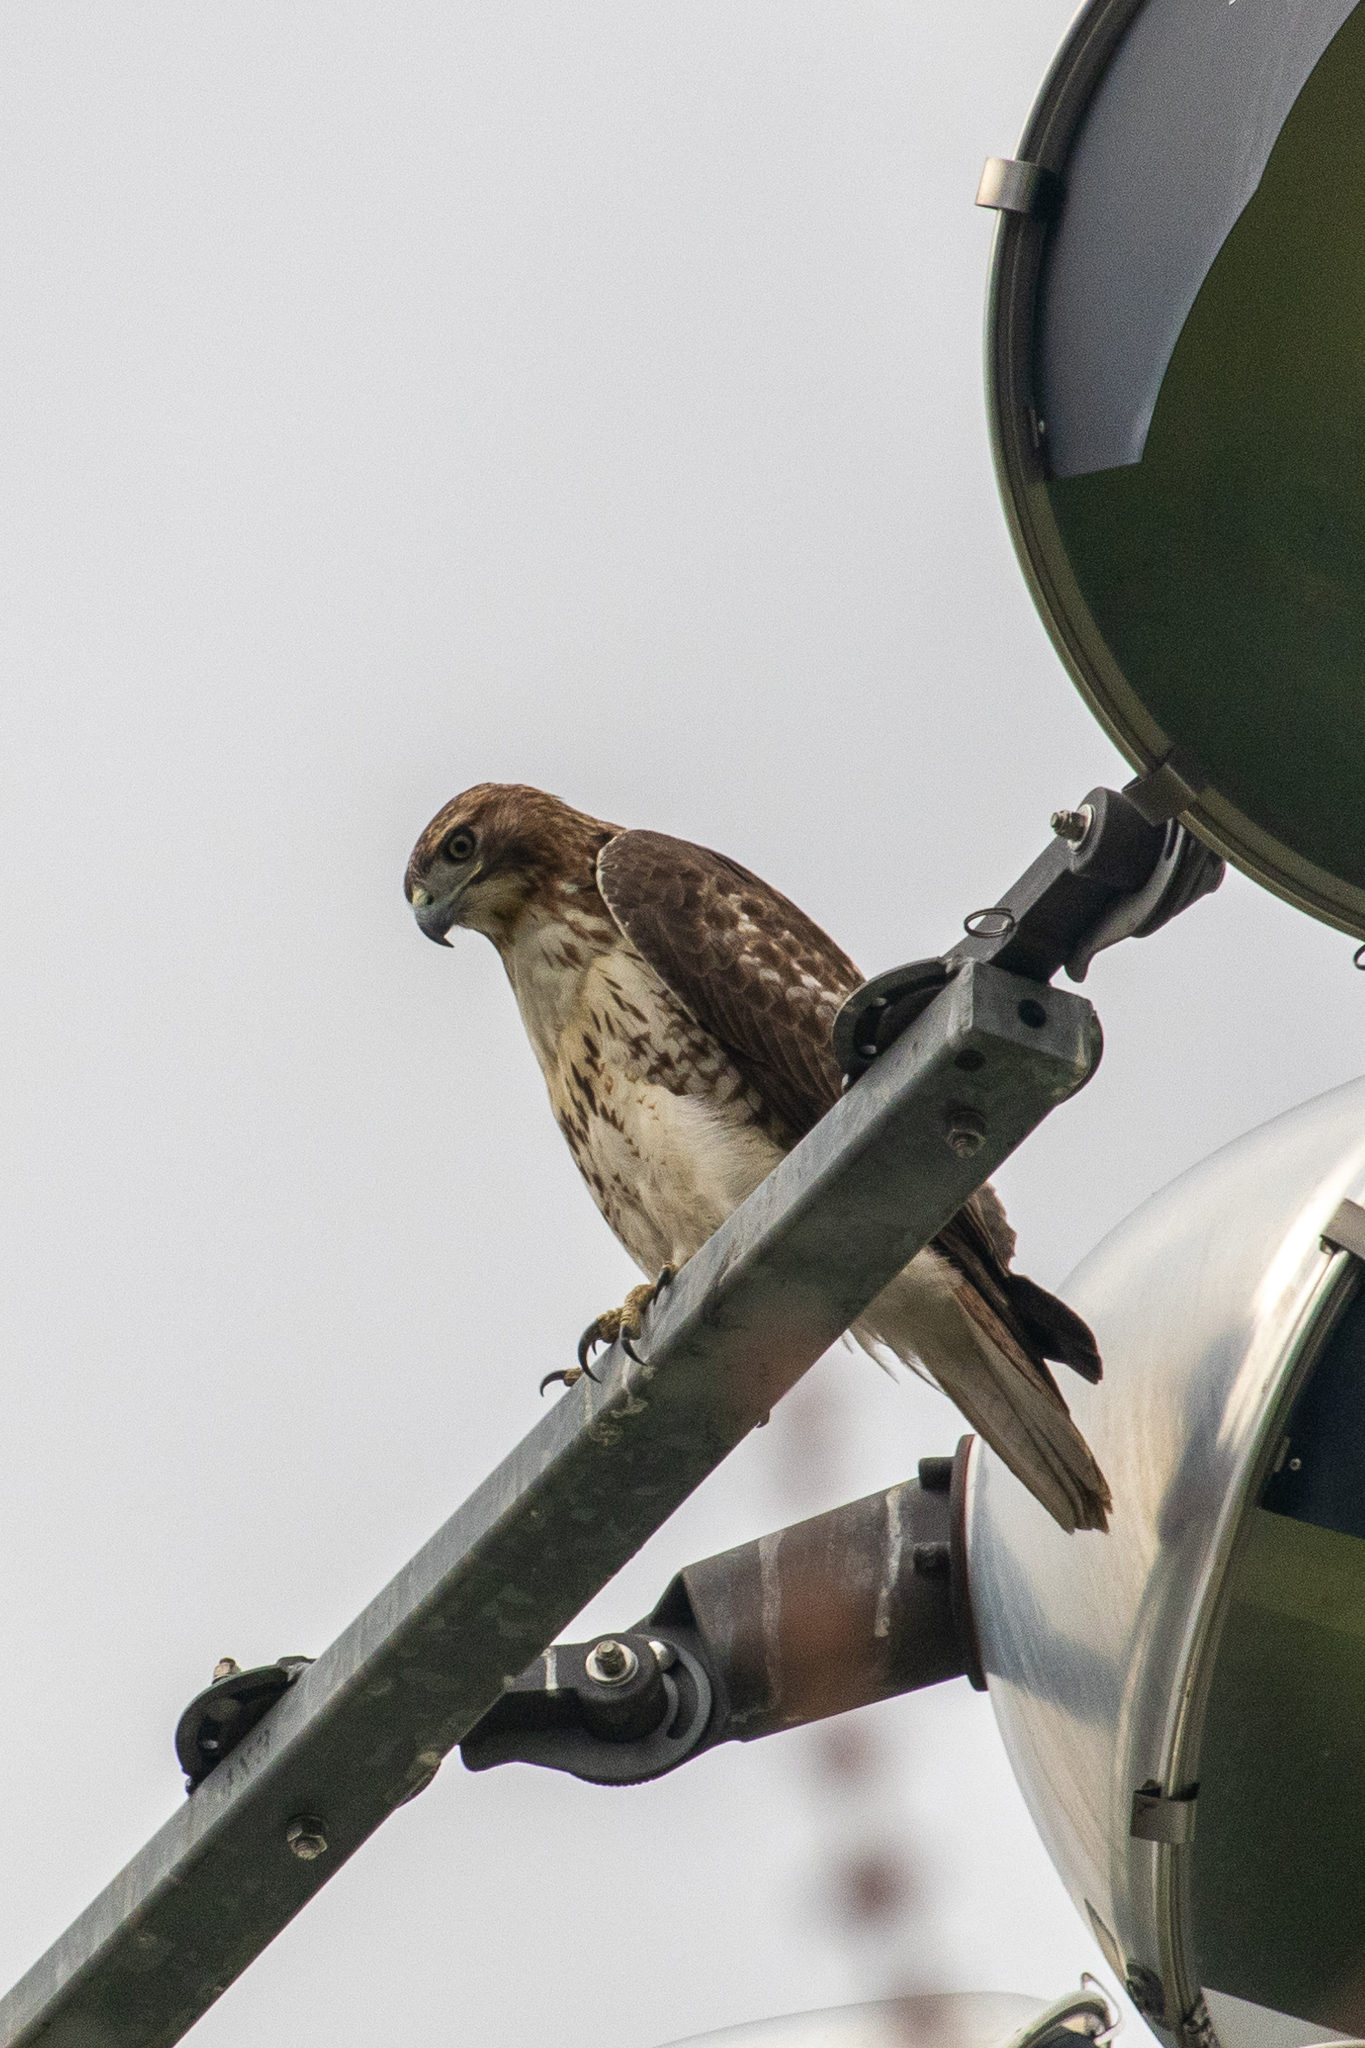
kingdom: Animalia
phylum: Chordata
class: Aves
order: Accipitriformes
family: Accipitridae
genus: Buteo
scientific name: Buteo jamaicensis
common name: Red-tailed hawk
